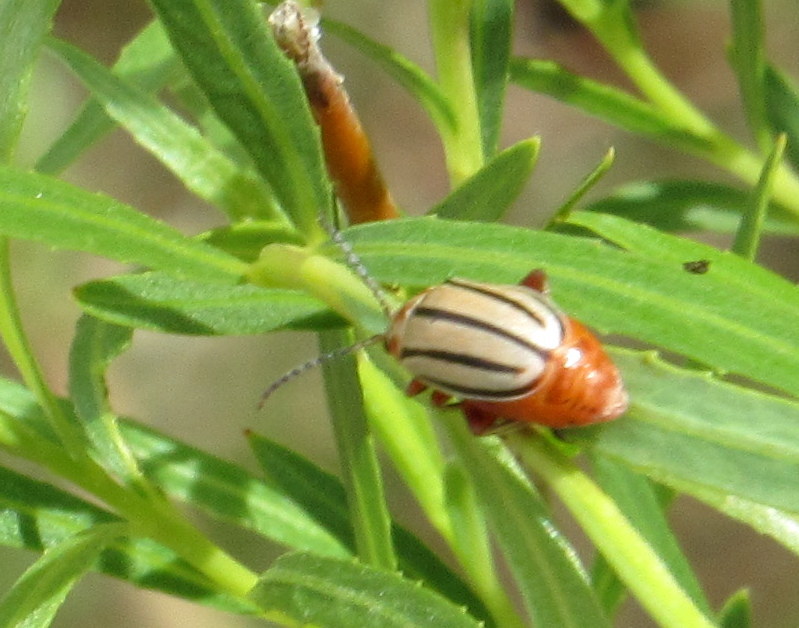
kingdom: Animalia
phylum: Arthropoda
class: Insecta
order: Coleoptera
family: Chrysomelidae
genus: Disonycha
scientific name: Disonycha alternata
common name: Striped willow leaf beetle
